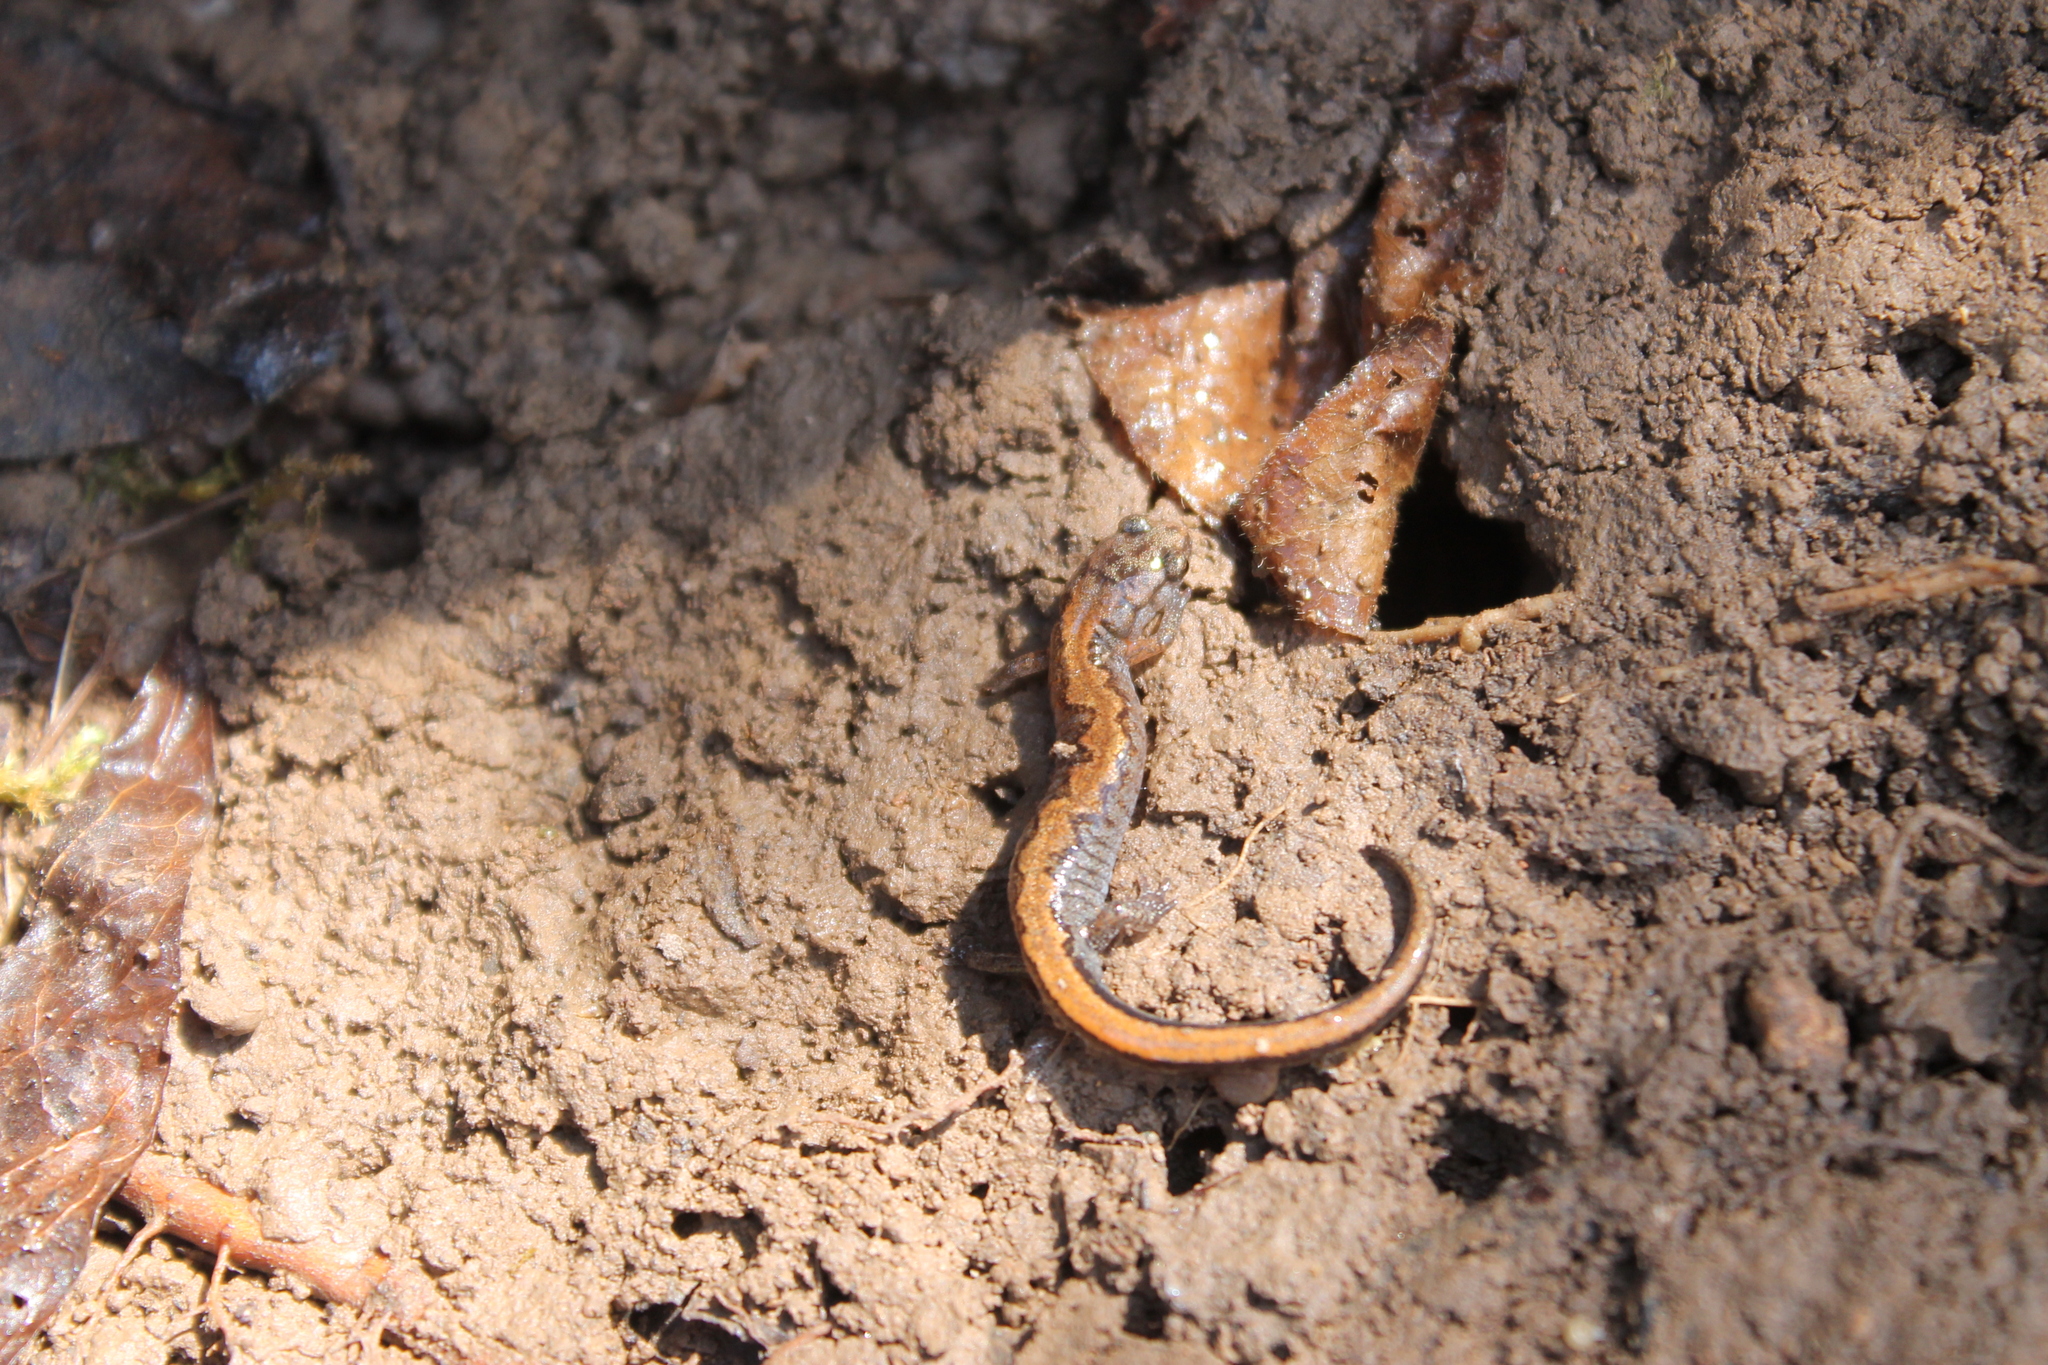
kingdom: Animalia
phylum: Chordata
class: Amphibia
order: Caudata
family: Plethodontidae
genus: Plethodon
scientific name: Plethodon dorsalis
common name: Northern zigzag salamander
